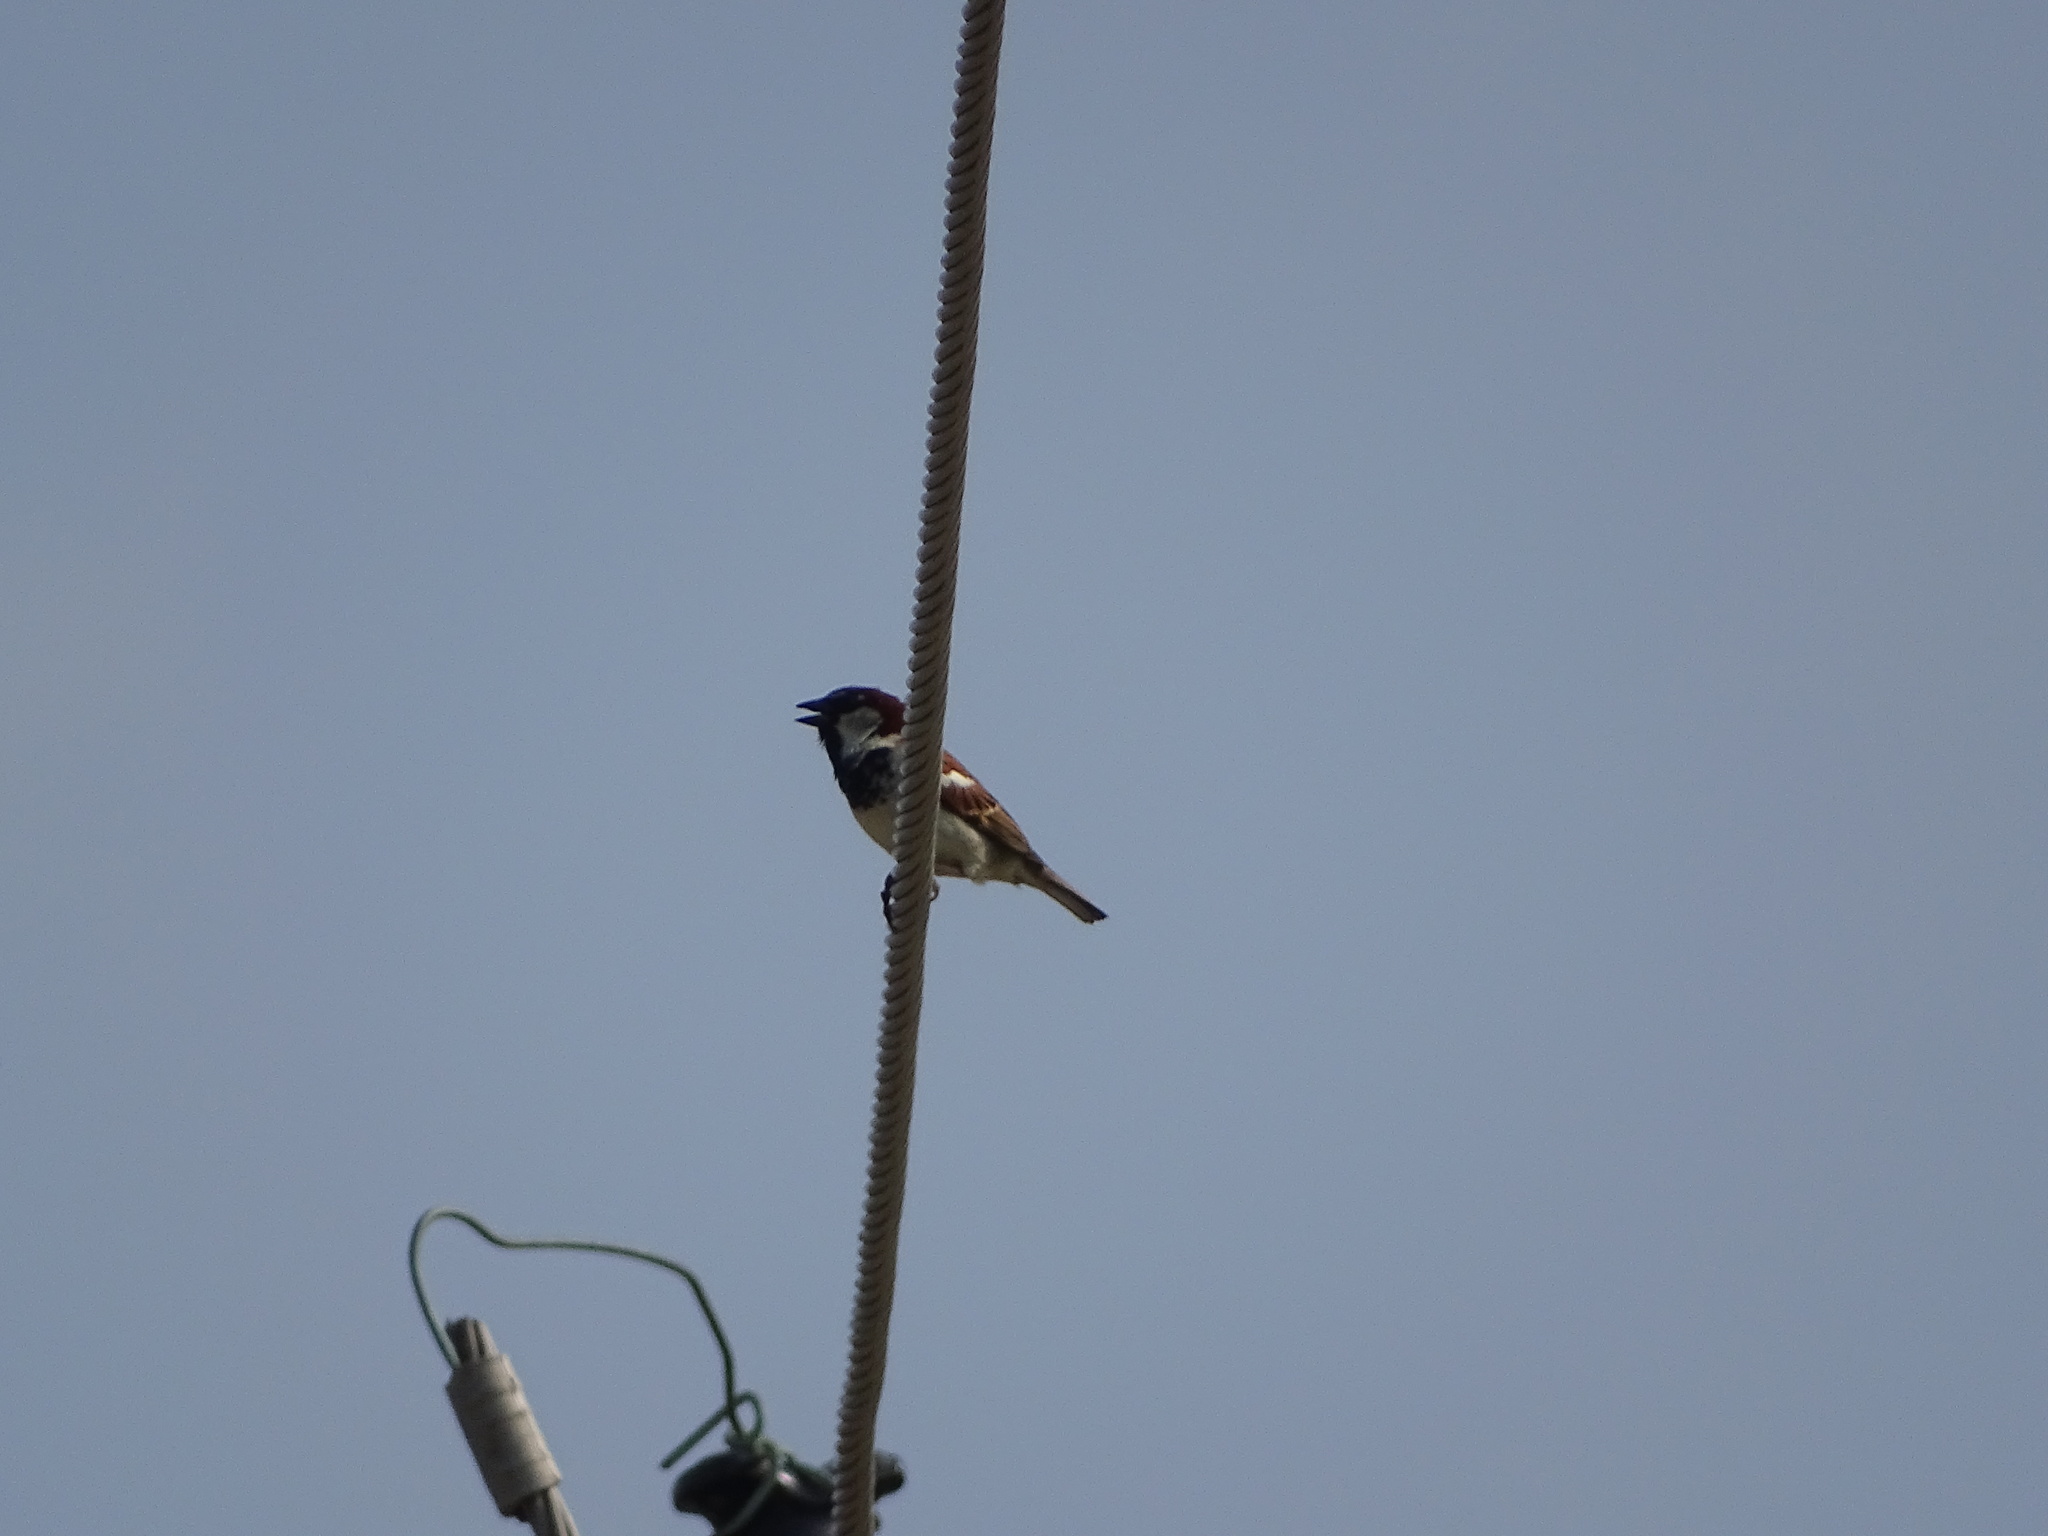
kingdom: Animalia
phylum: Chordata
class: Aves
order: Passeriformes
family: Passeridae
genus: Passer
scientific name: Passer domesticus
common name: House sparrow
